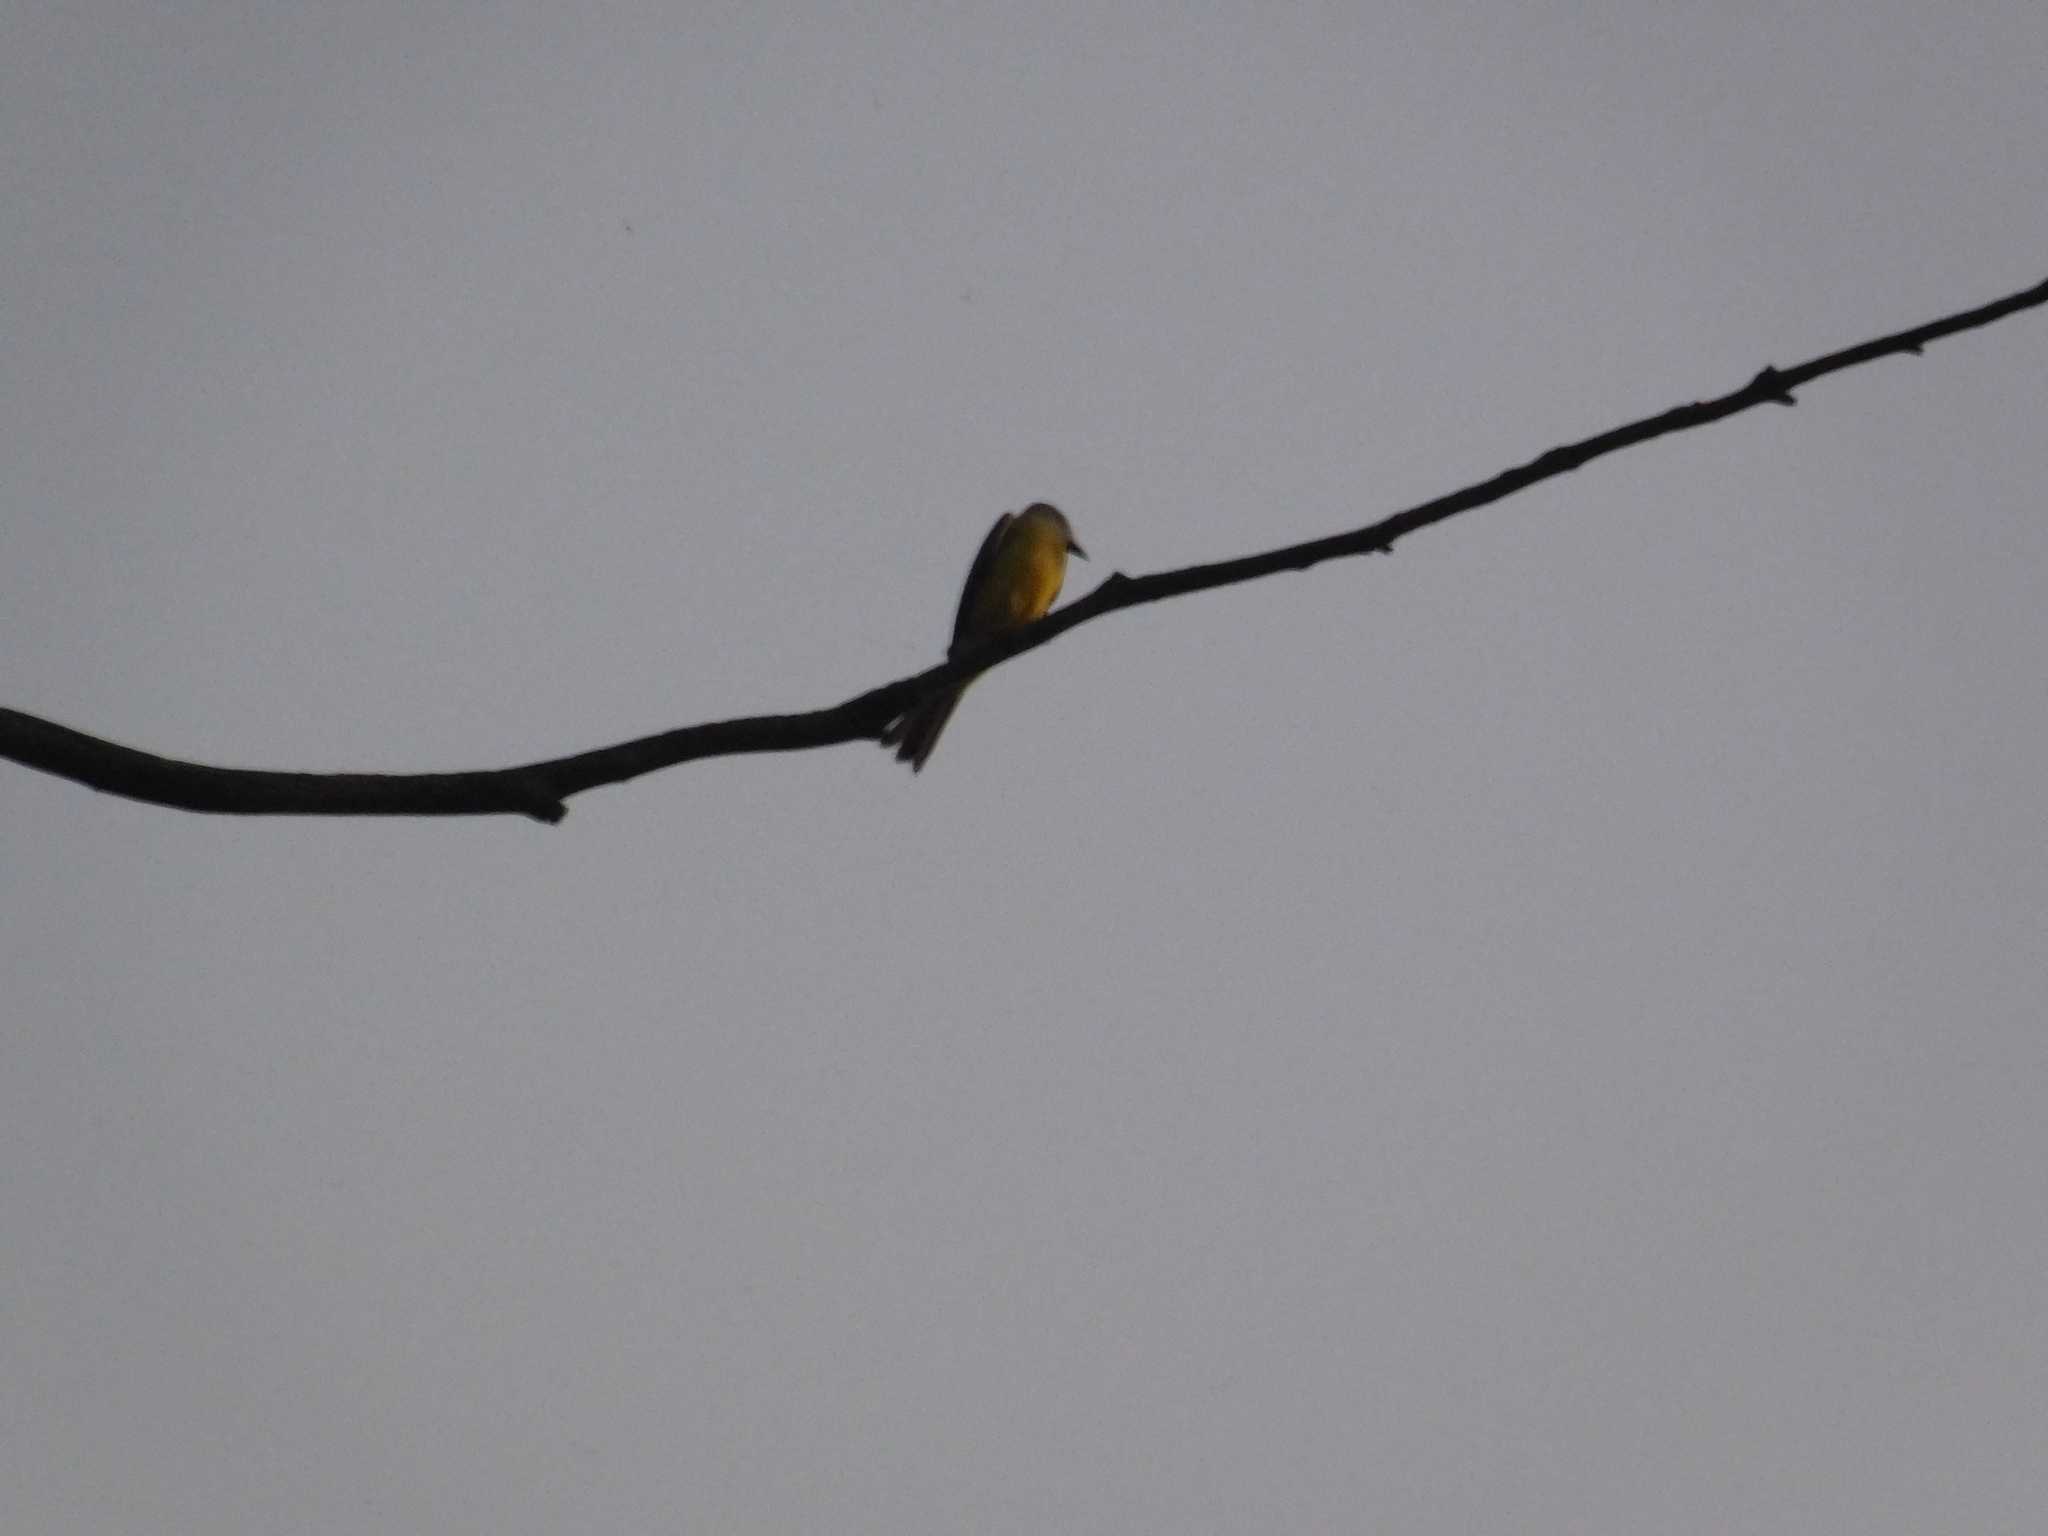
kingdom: Animalia
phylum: Chordata
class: Aves
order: Passeriformes
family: Tyrannidae
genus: Tyrannus
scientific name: Tyrannus melancholicus
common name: Tropical kingbird
